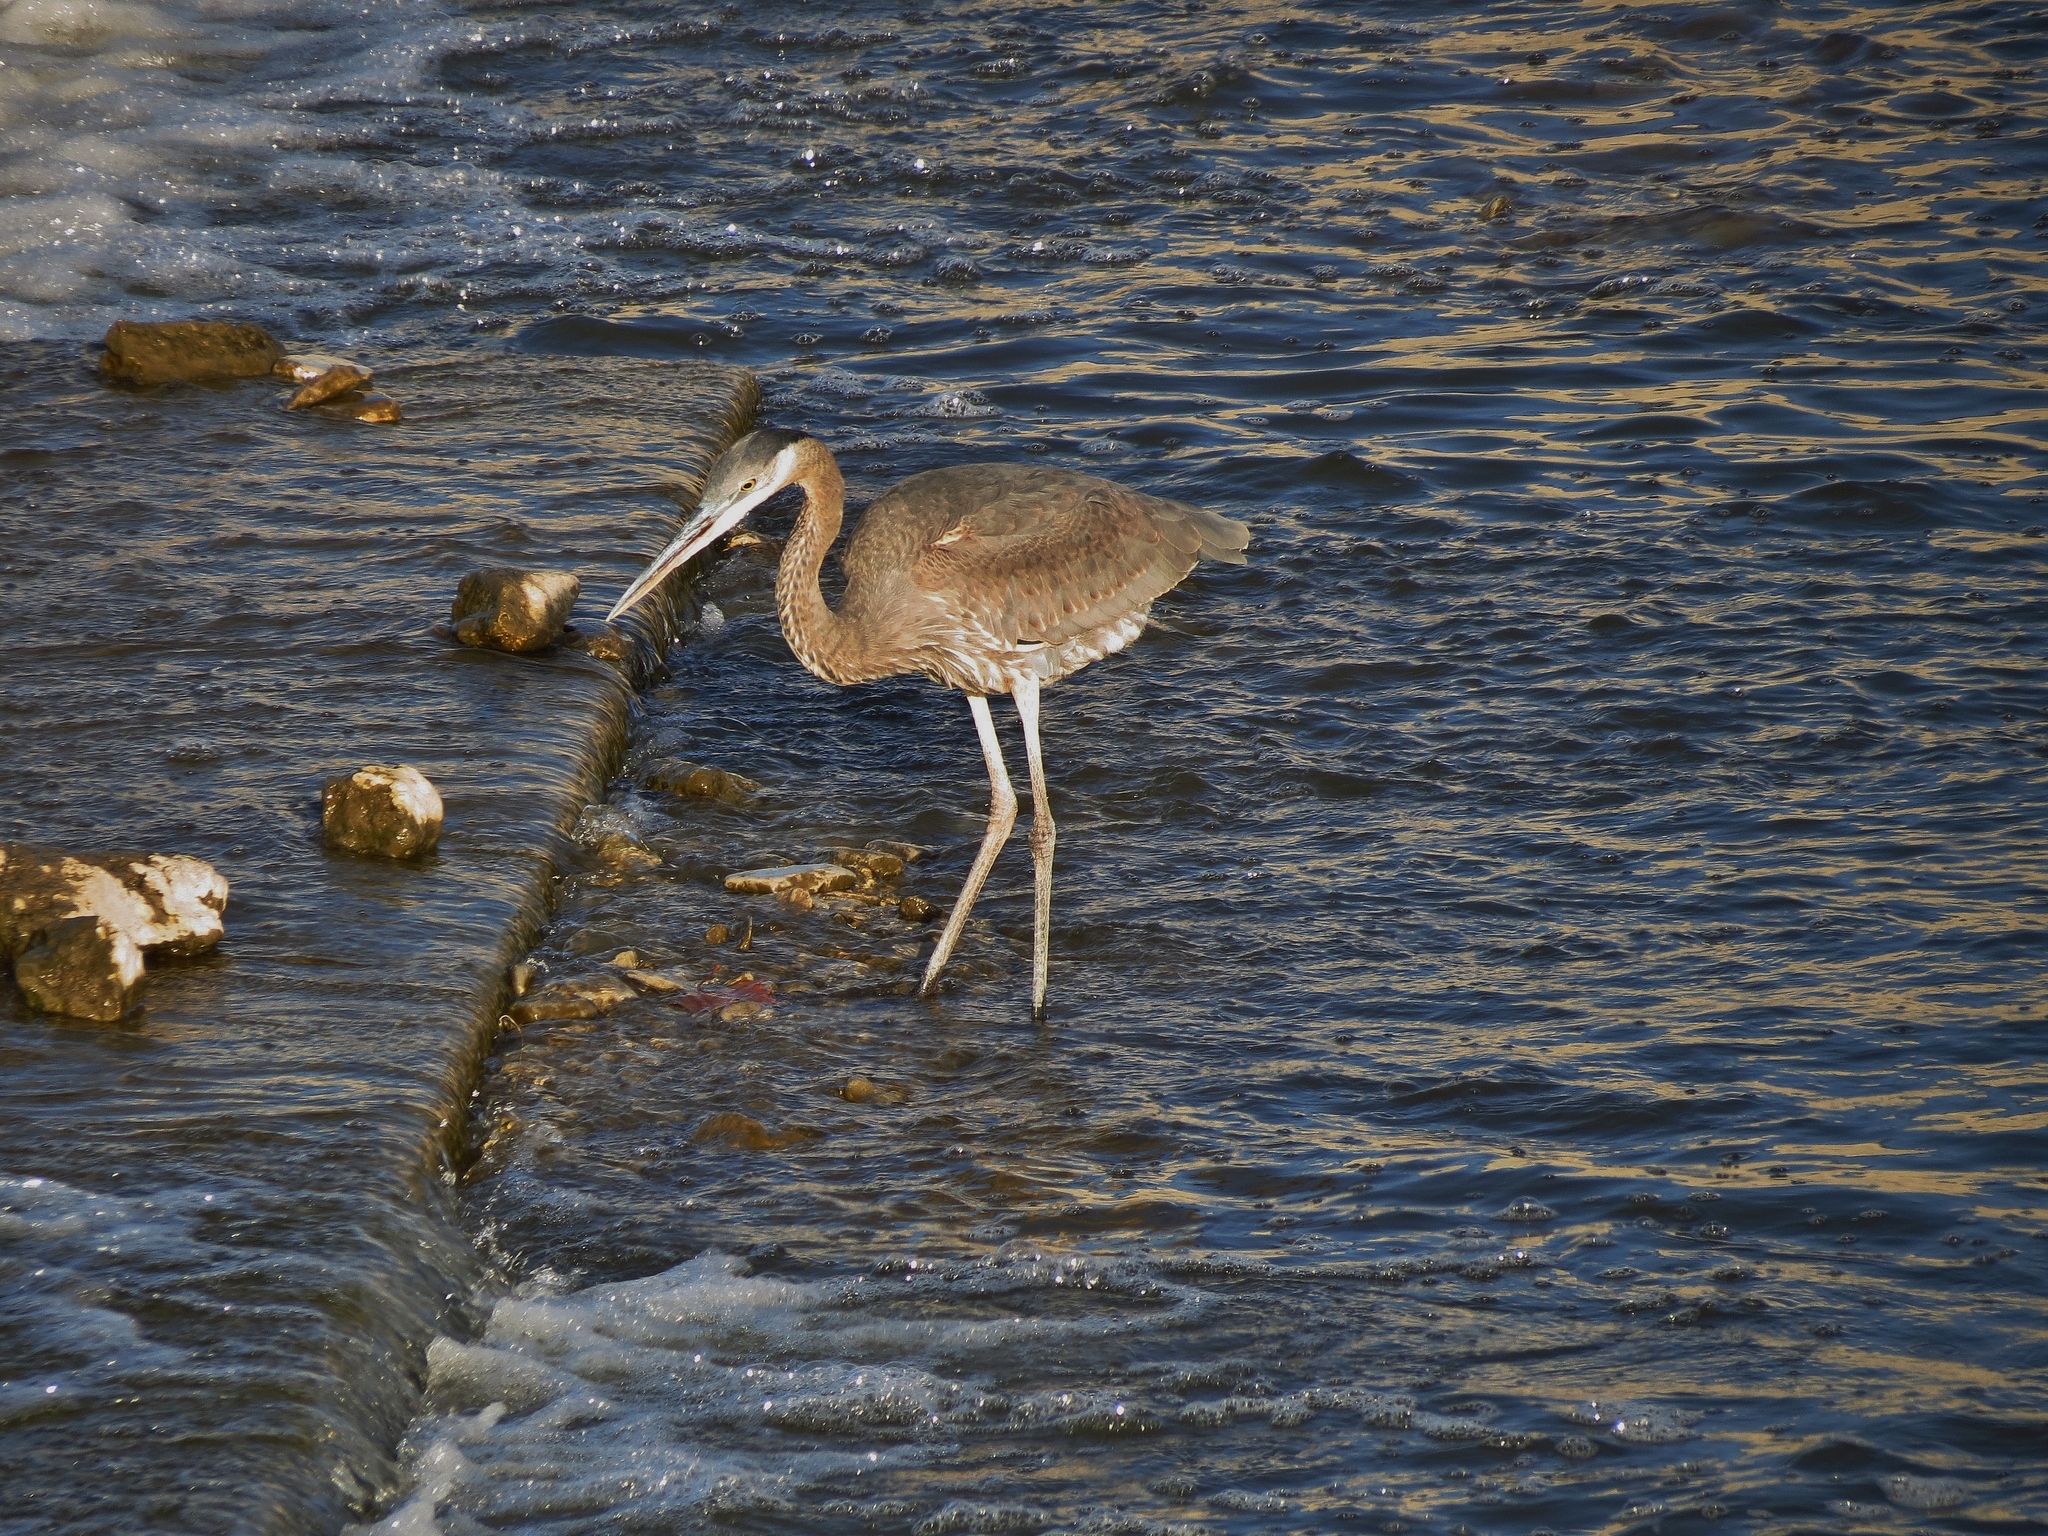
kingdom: Animalia
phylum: Chordata
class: Aves
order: Pelecaniformes
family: Ardeidae
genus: Ardea
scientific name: Ardea herodias
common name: Great blue heron
